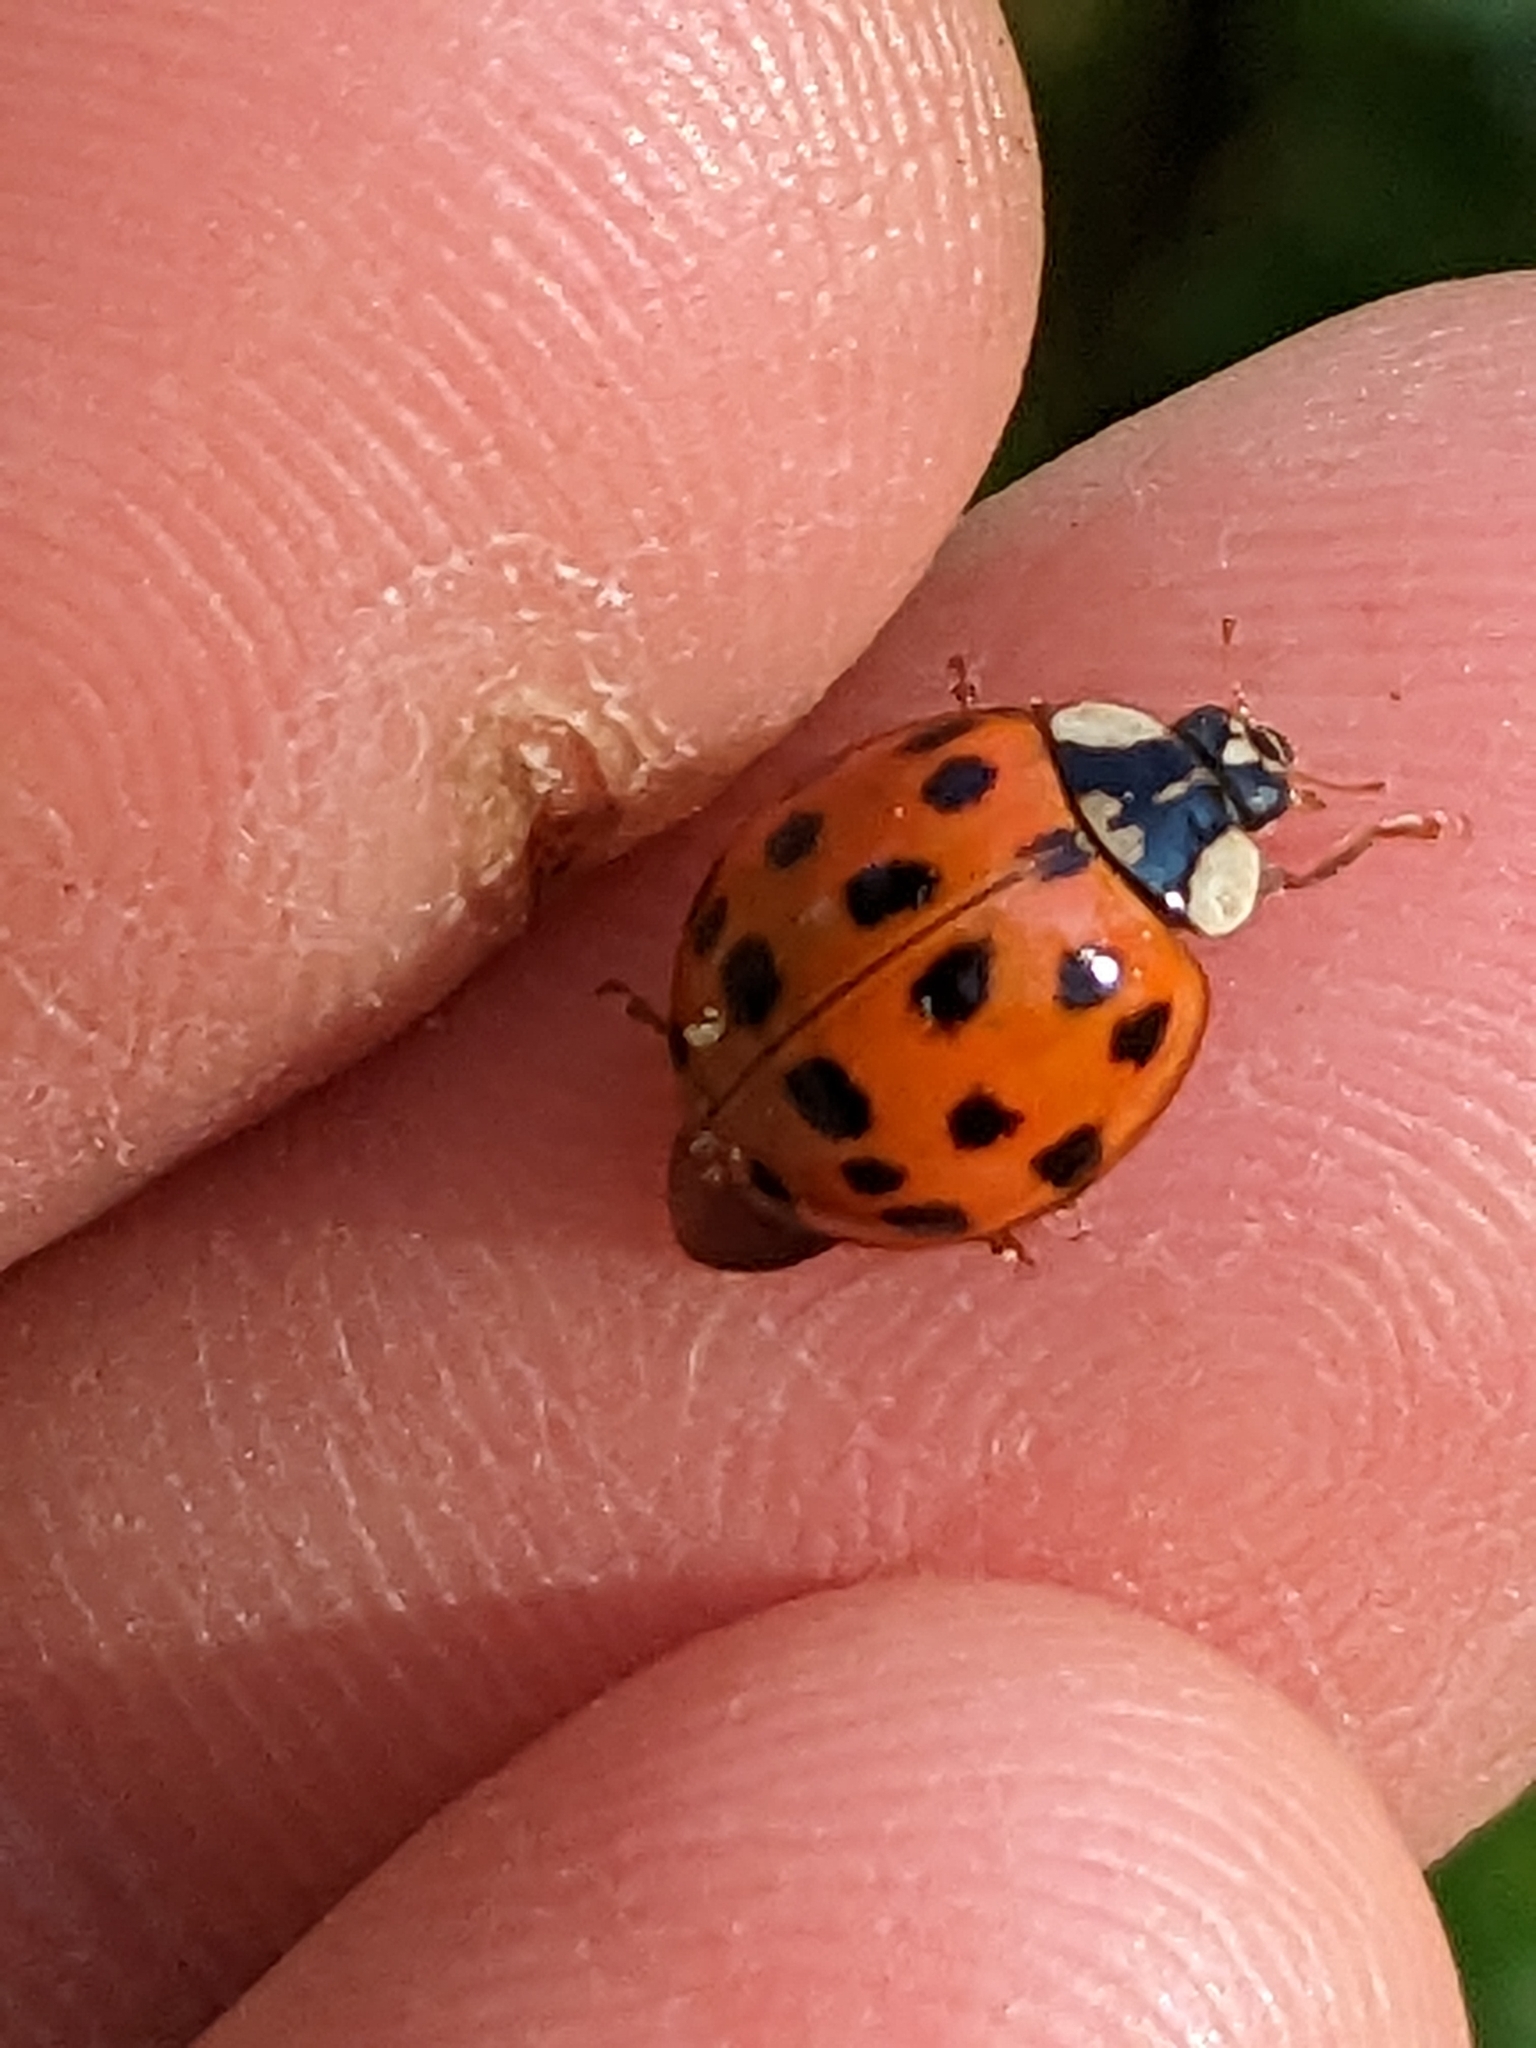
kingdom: Animalia
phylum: Arthropoda
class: Insecta
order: Coleoptera
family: Coccinellidae
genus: Harmonia
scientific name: Harmonia axyridis
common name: Harlequin ladybird
